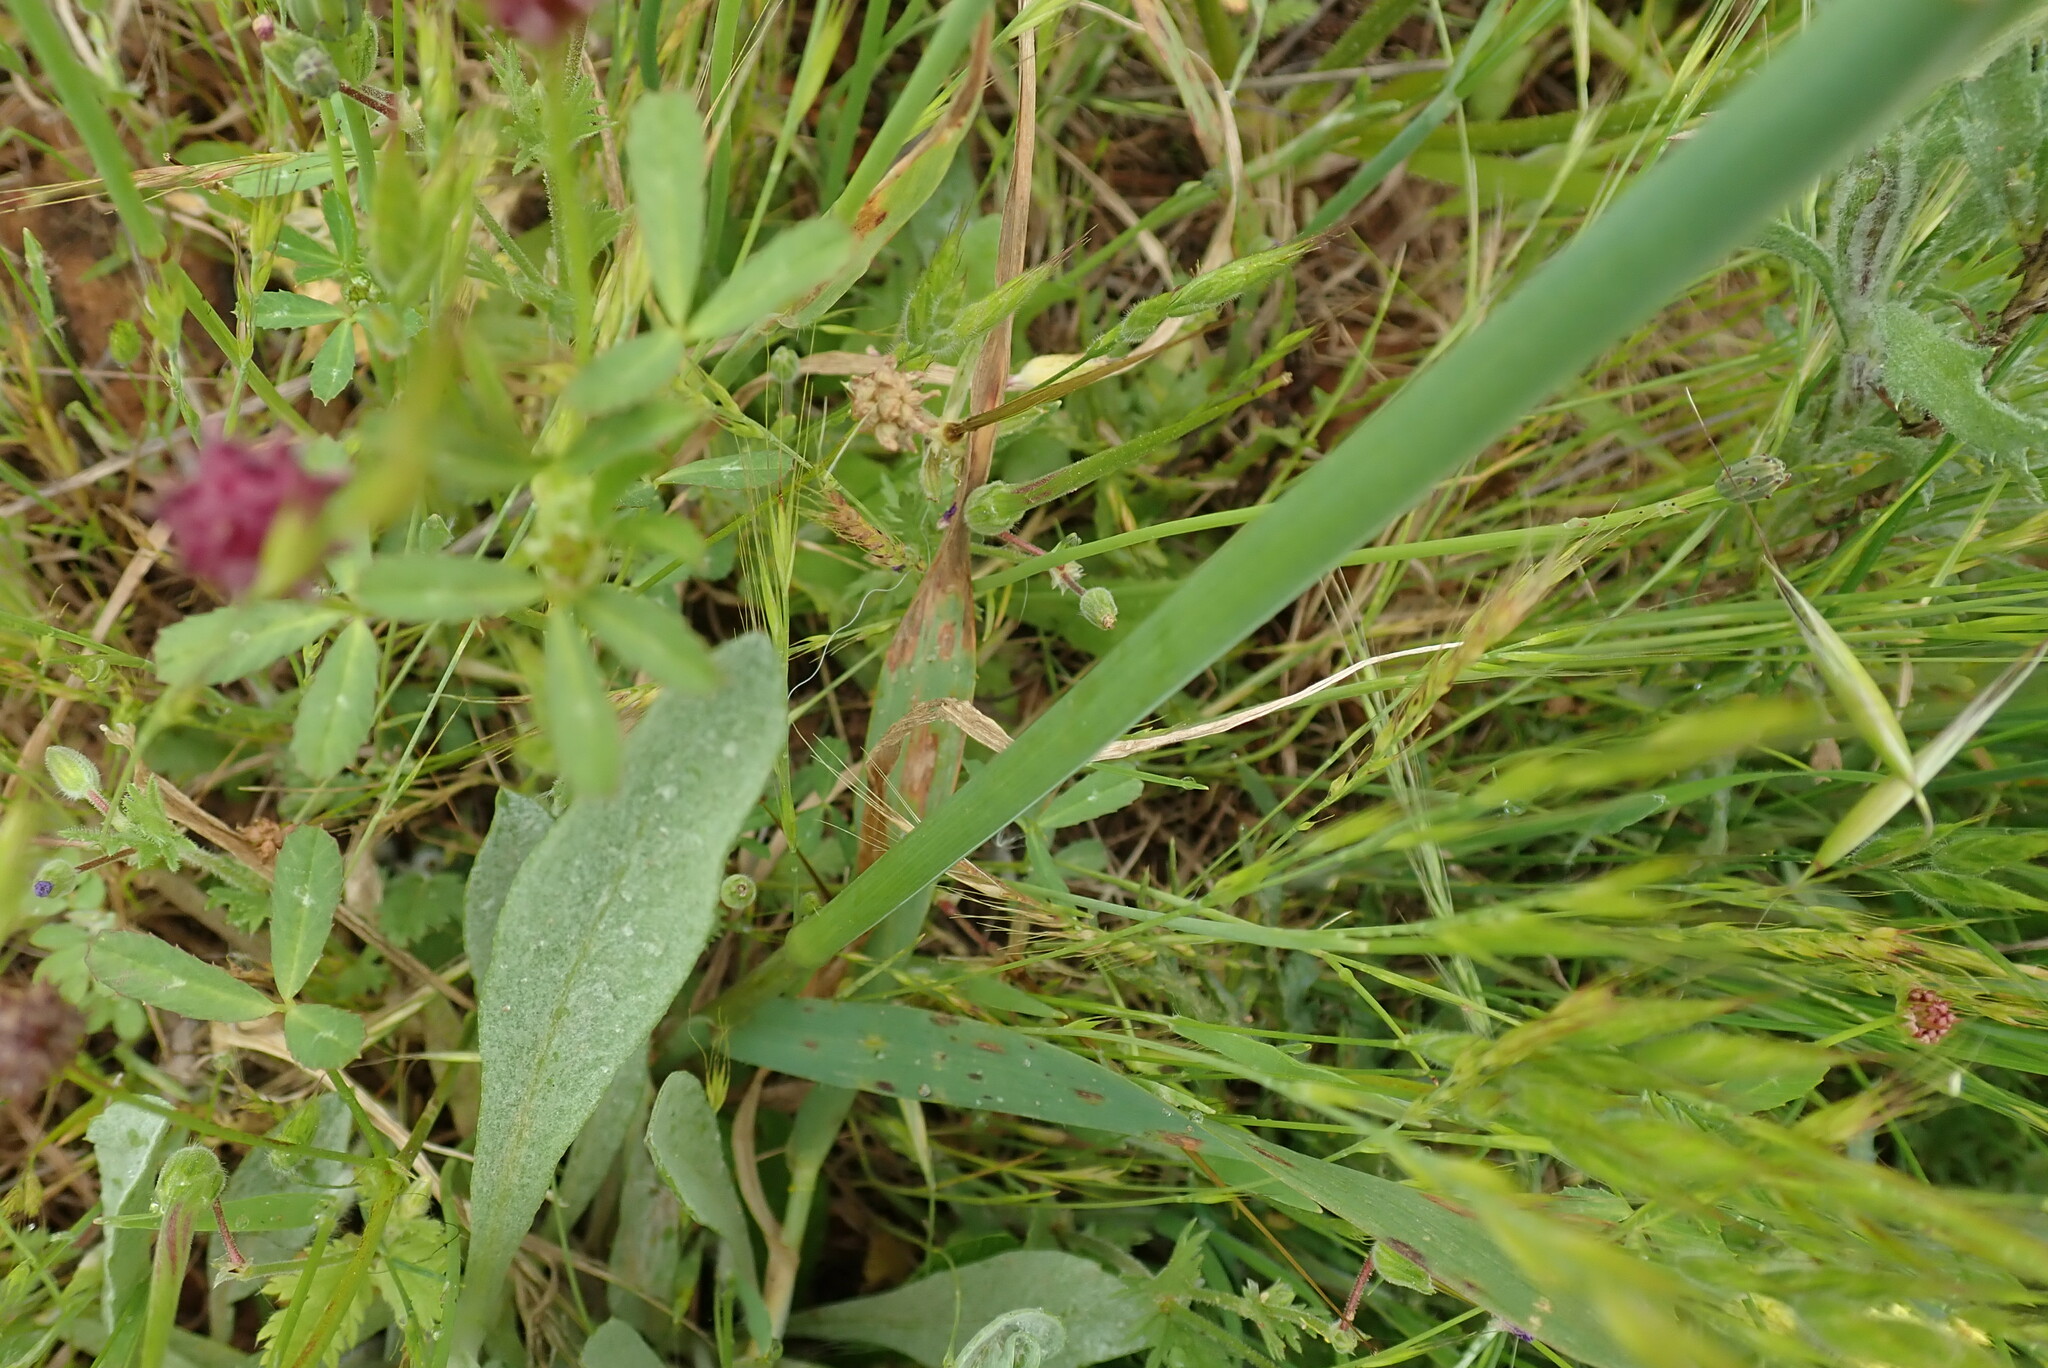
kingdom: Plantae
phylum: Tracheophyta
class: Magnoliopsida
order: Fabales
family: Fabaceae
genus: Trifolium
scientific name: Trifolium depauperatum
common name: Poverty clover
